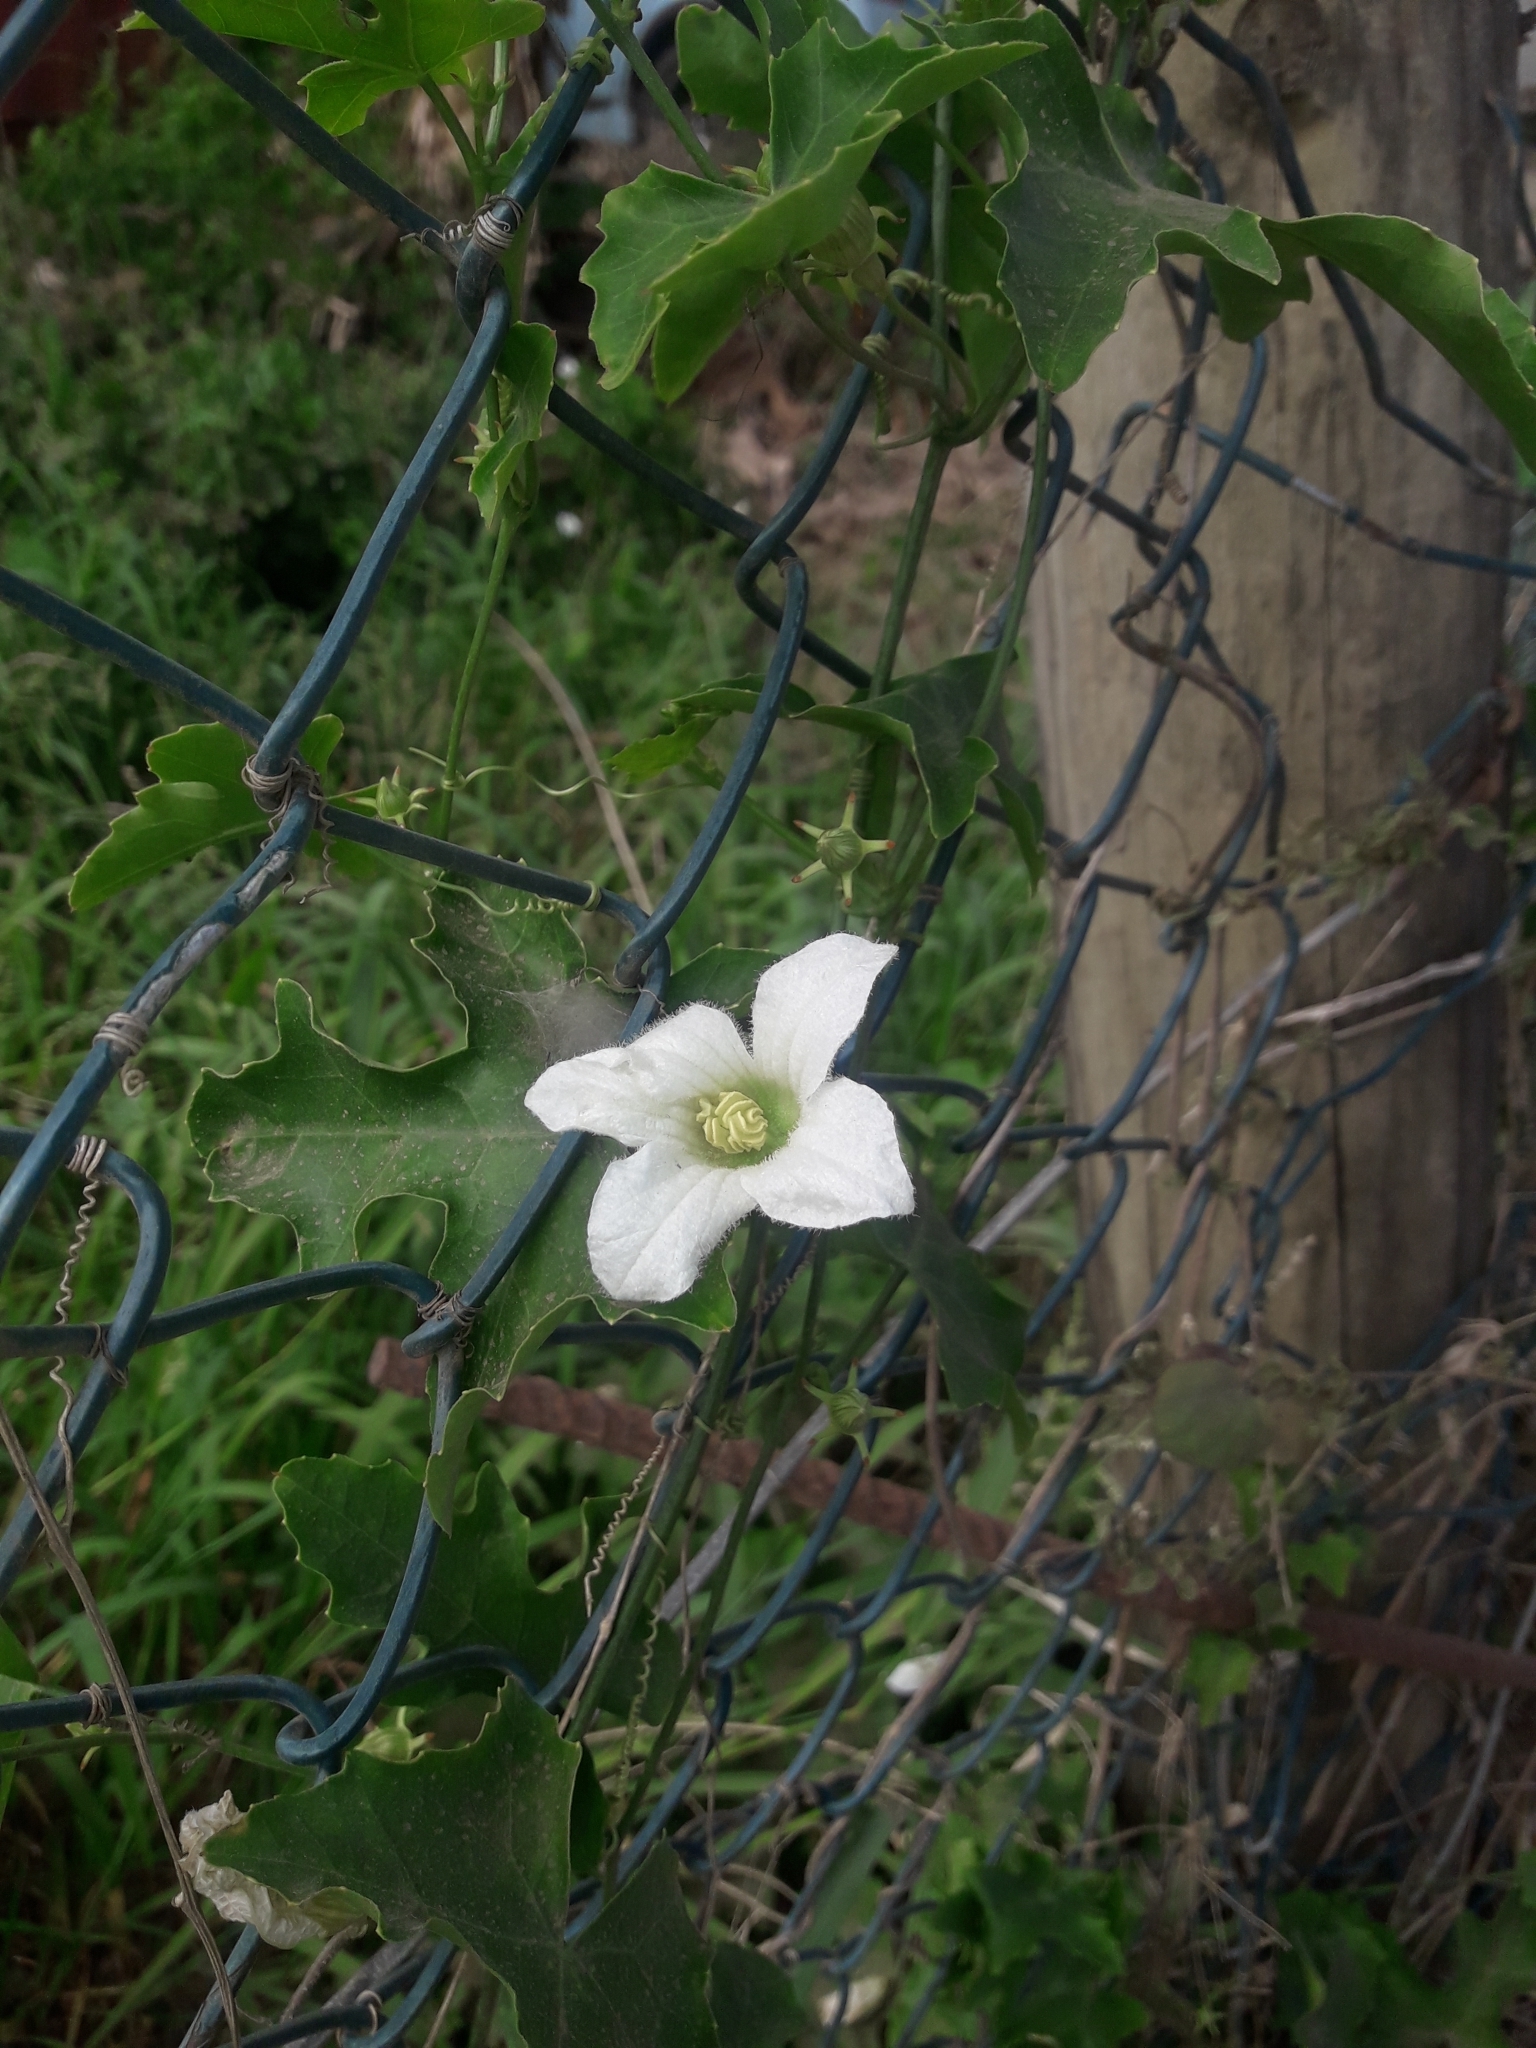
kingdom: Plantae
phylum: Tracheophyta
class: Magnoliopsida
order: Cucurbitales
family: Cucurbitaceae
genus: Coccinia
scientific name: Coccinia grandis
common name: Ivy gourd
